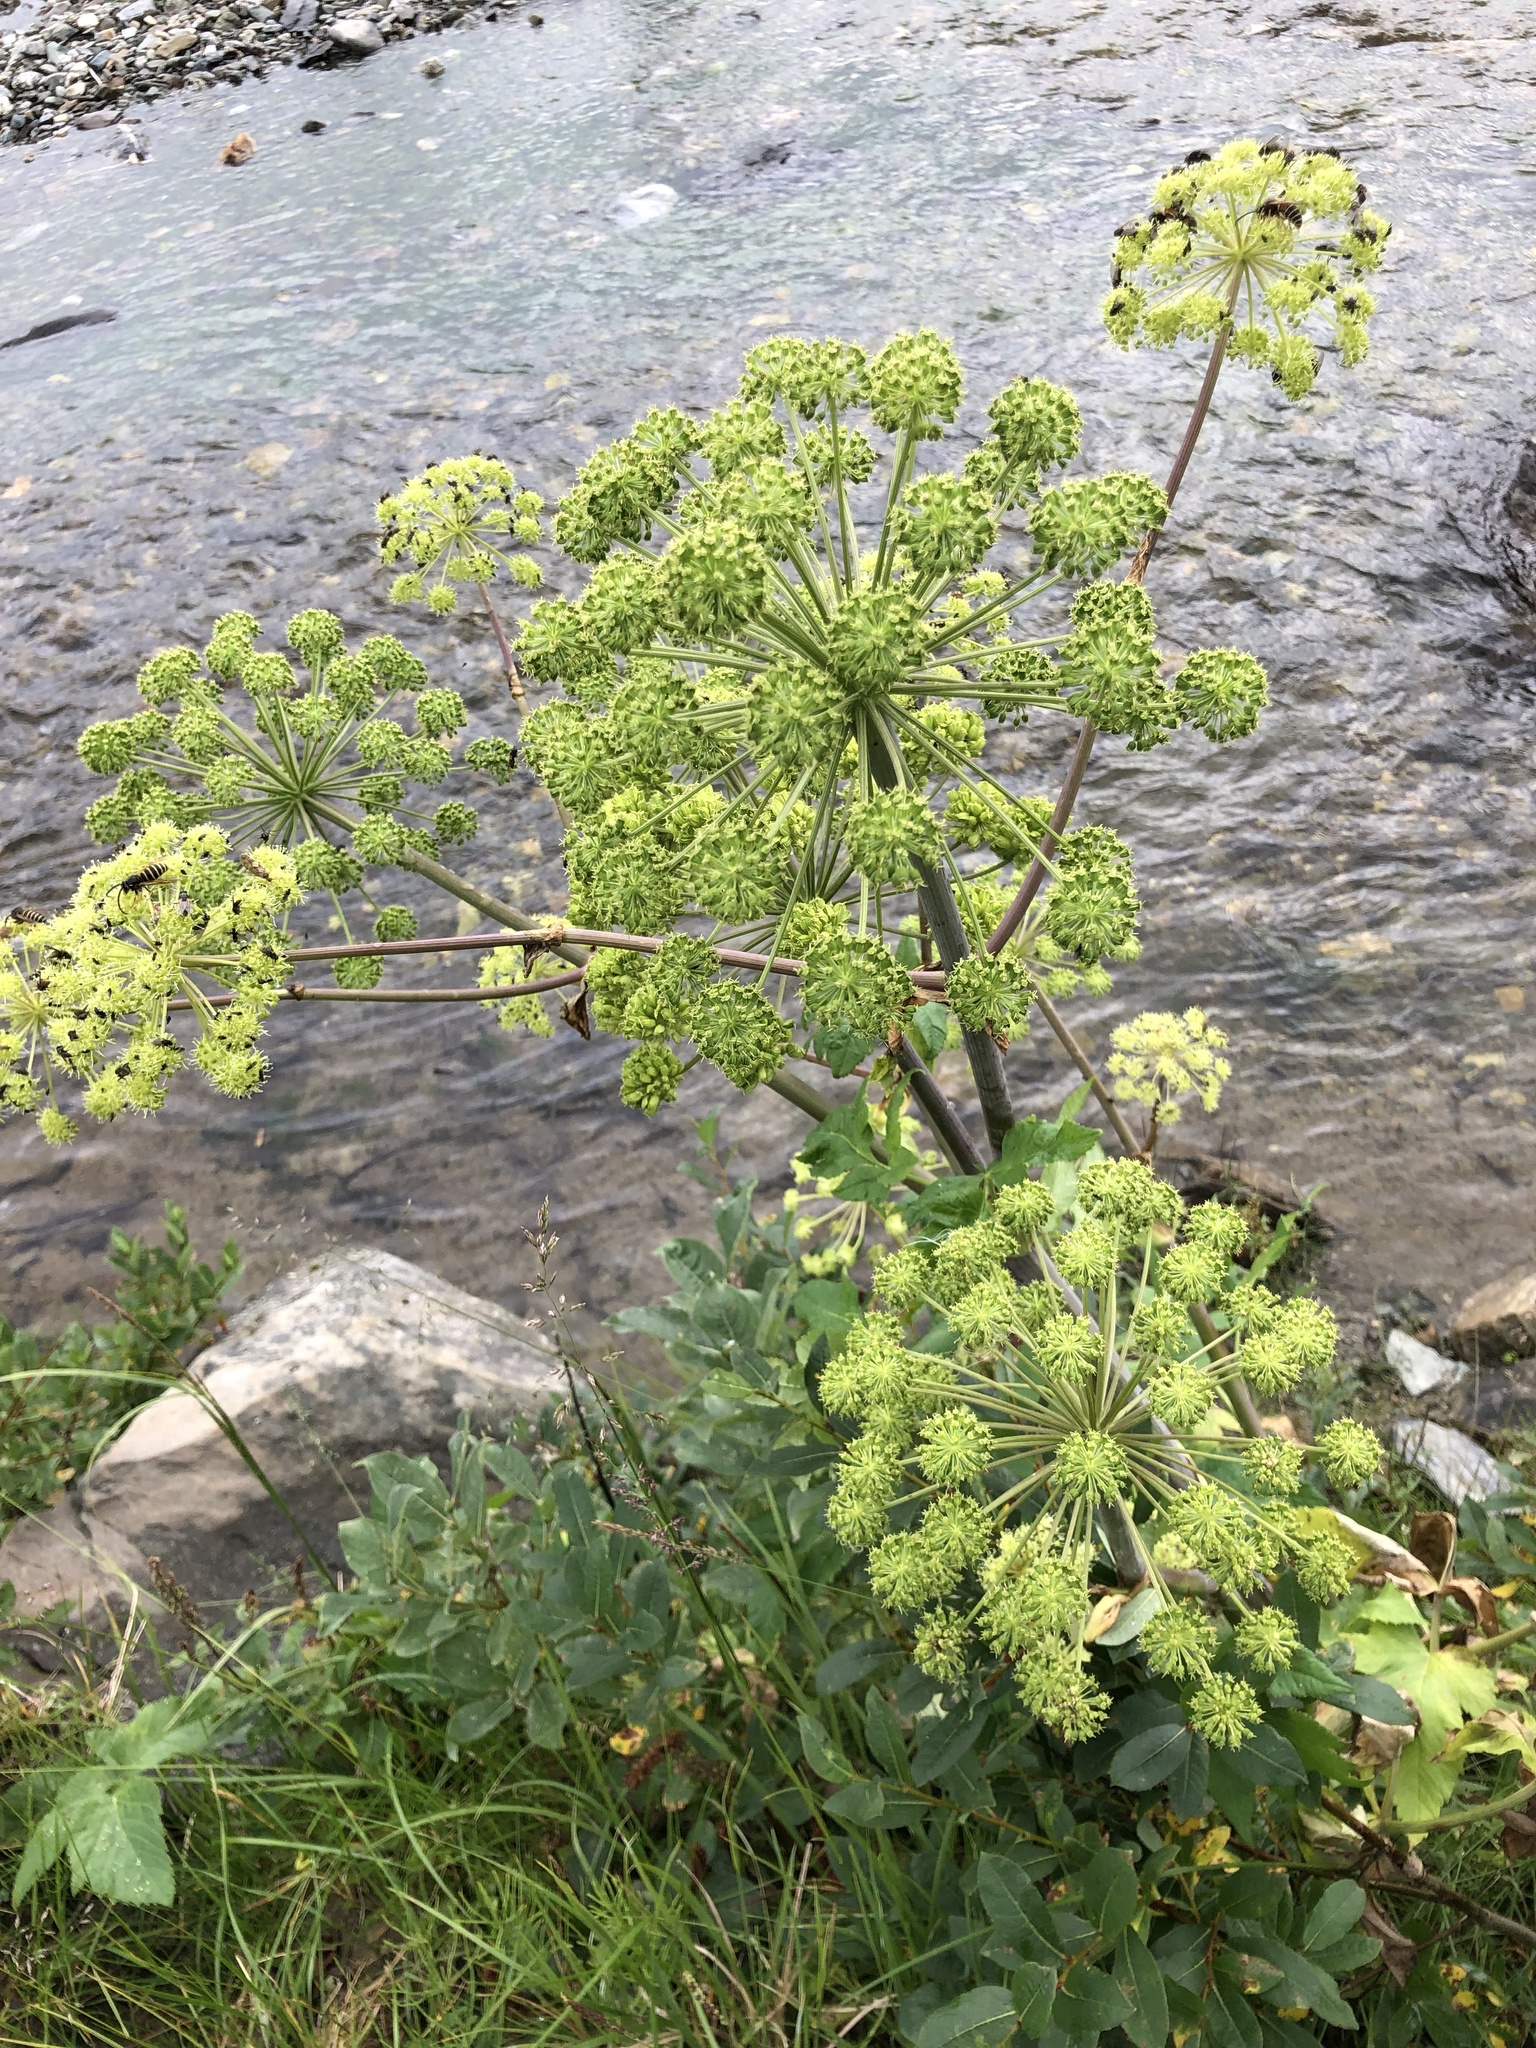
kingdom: Plantae
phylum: Tracheophyta
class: Magnoliopsida
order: Apiales
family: Apiaceae
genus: Angelica
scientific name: Angelica decurrens
